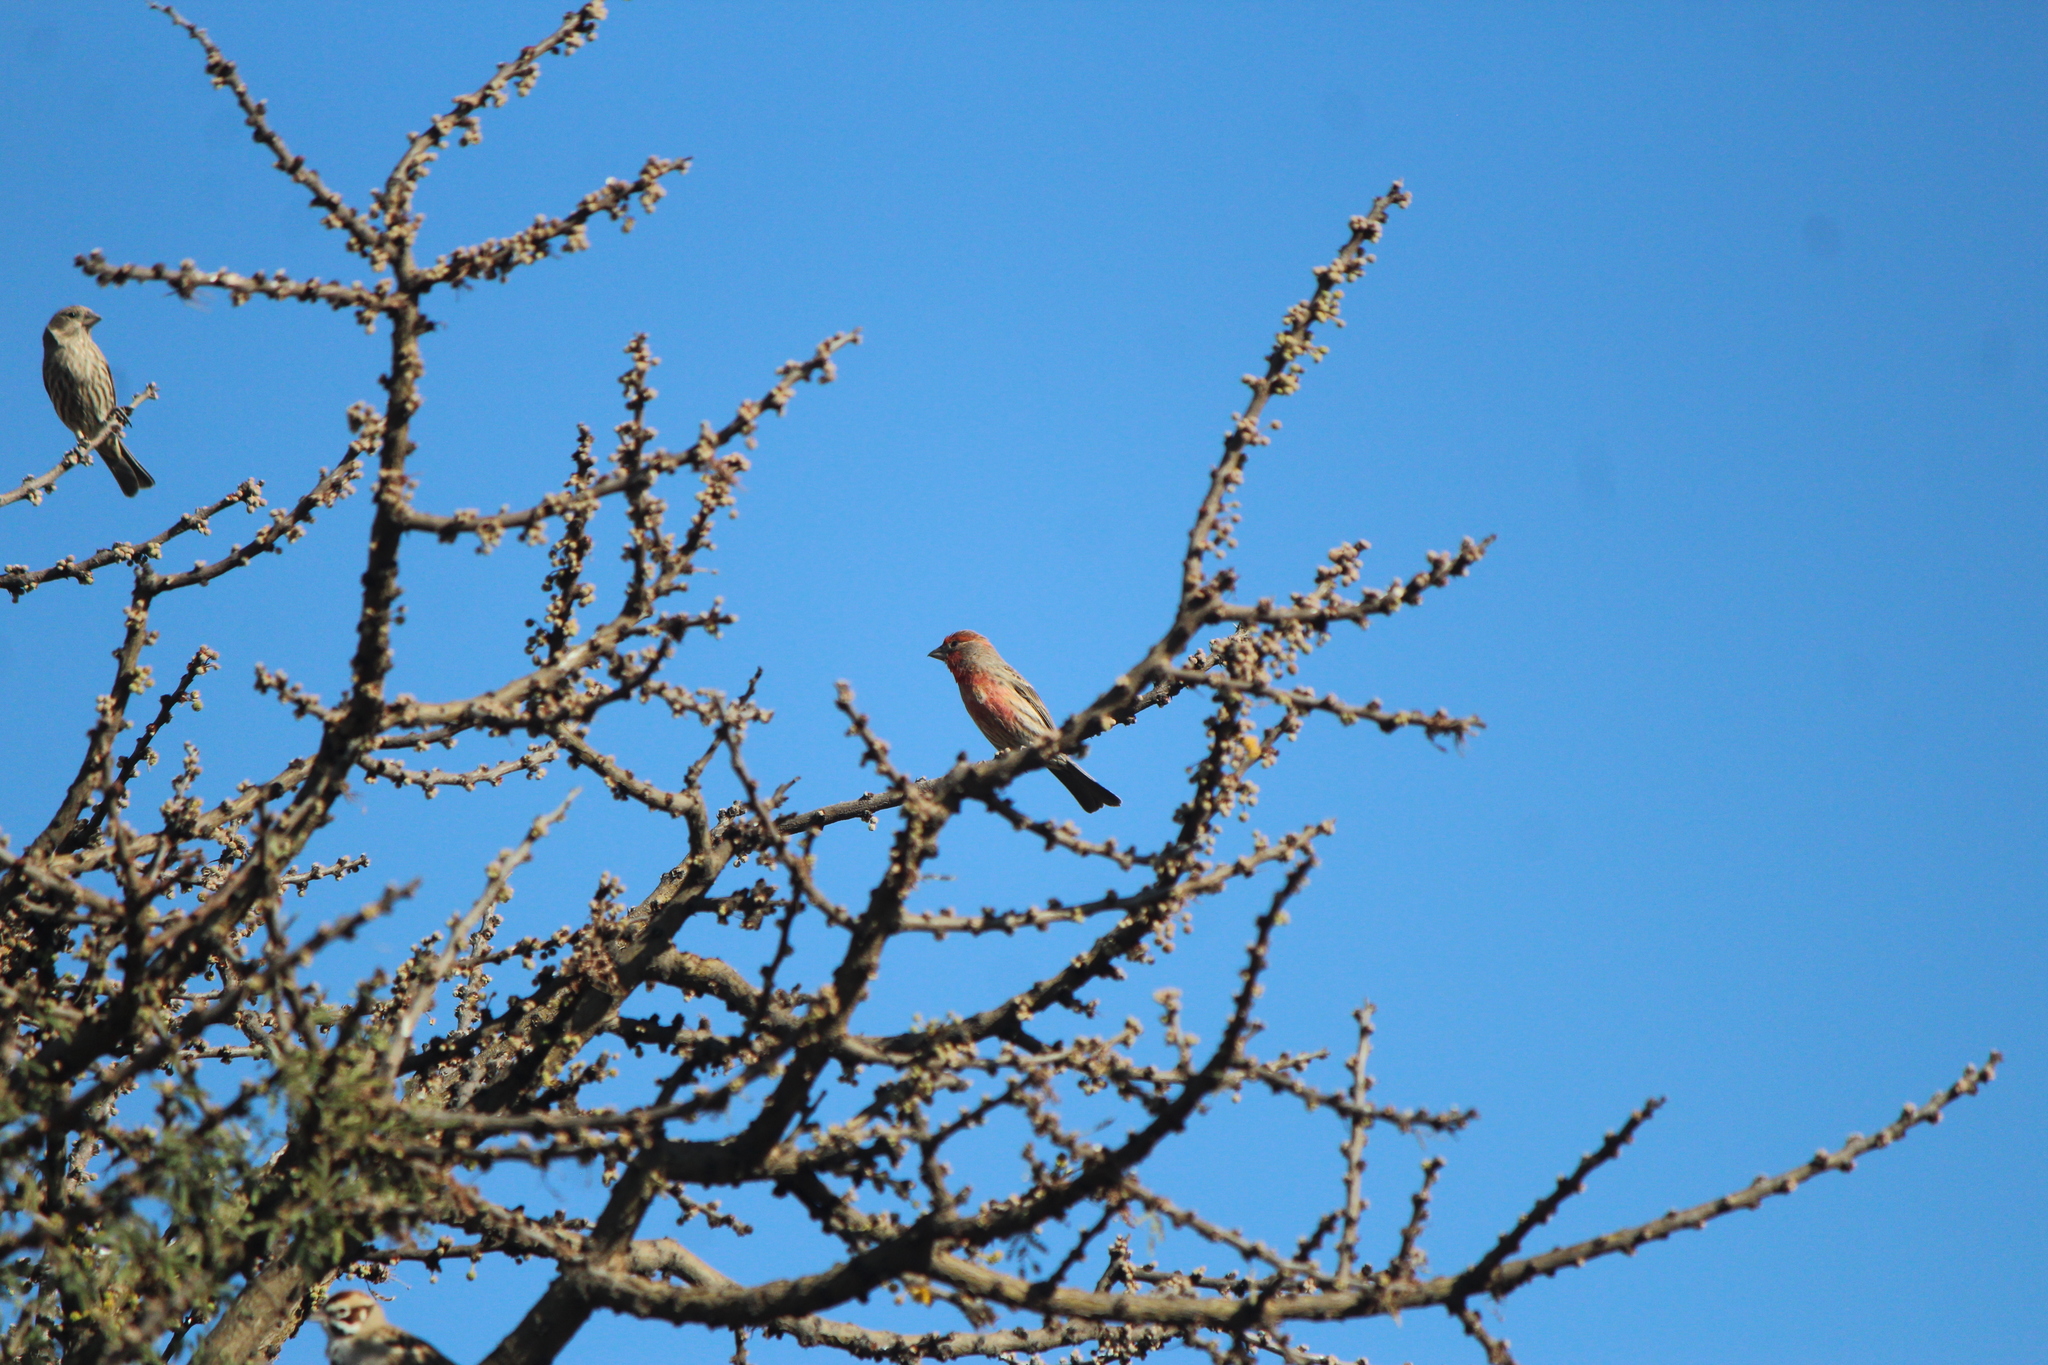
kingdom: Animalia
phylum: Chordata
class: Aves
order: Passeriformes
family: Fringillidae
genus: Haemorhous
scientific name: Haemorhous mexicanus
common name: House finch
